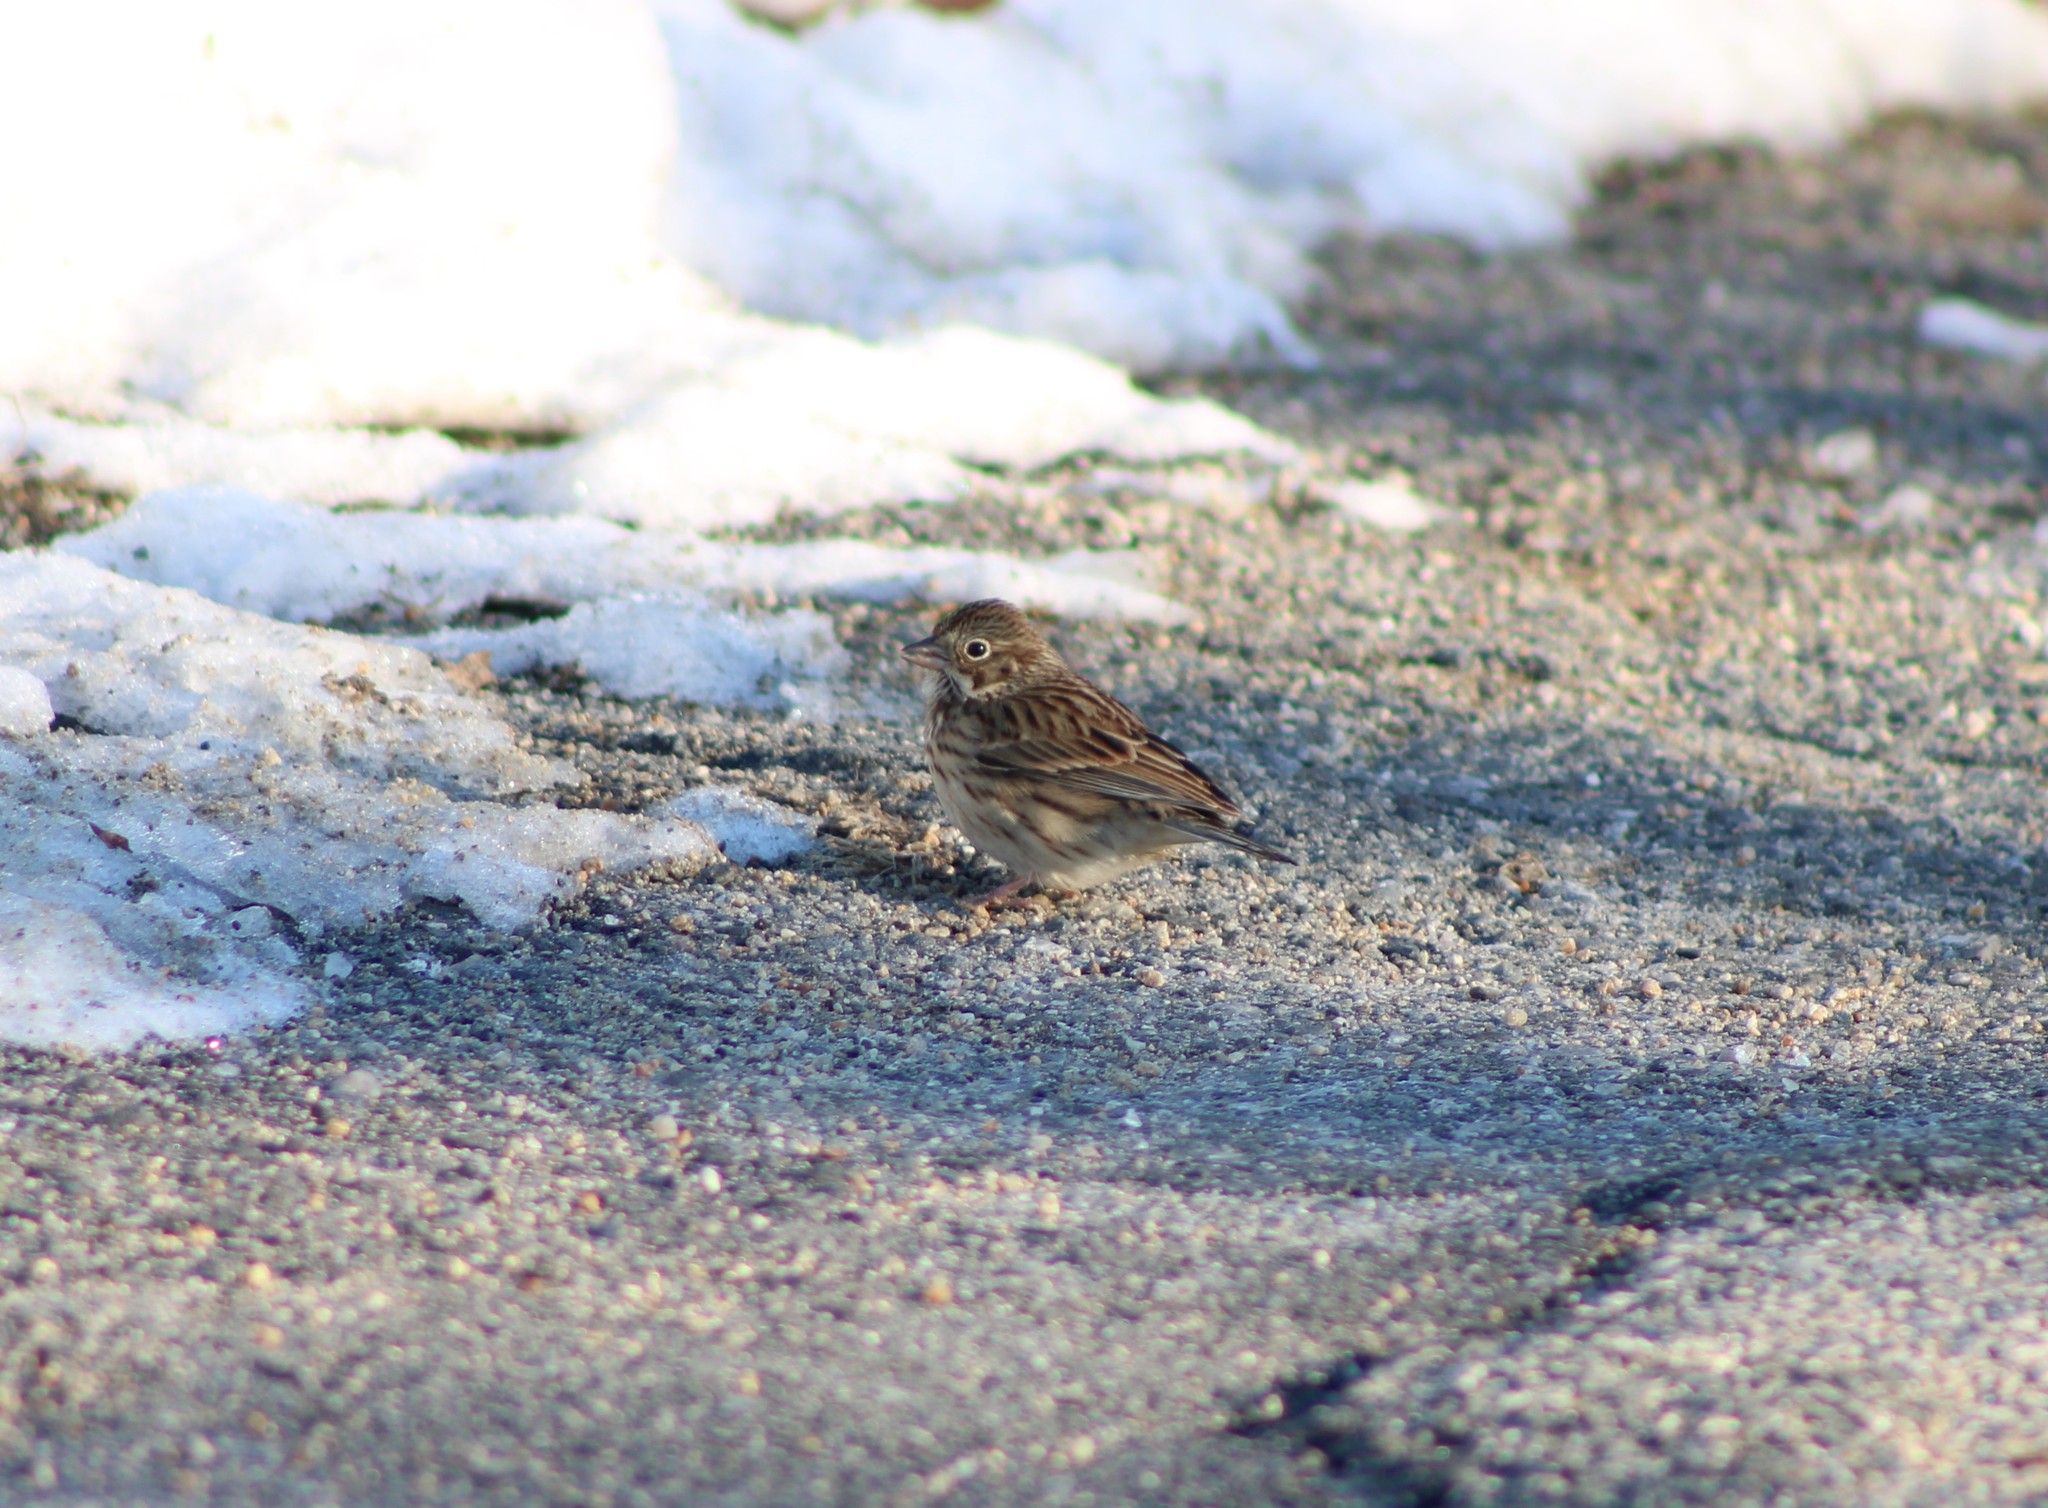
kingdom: Animalia
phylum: Chordata
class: Aves
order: Passeriformes
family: Passerellidae
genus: Pooecetes
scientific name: Pooecetes gramineus
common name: Vesper sparrow
